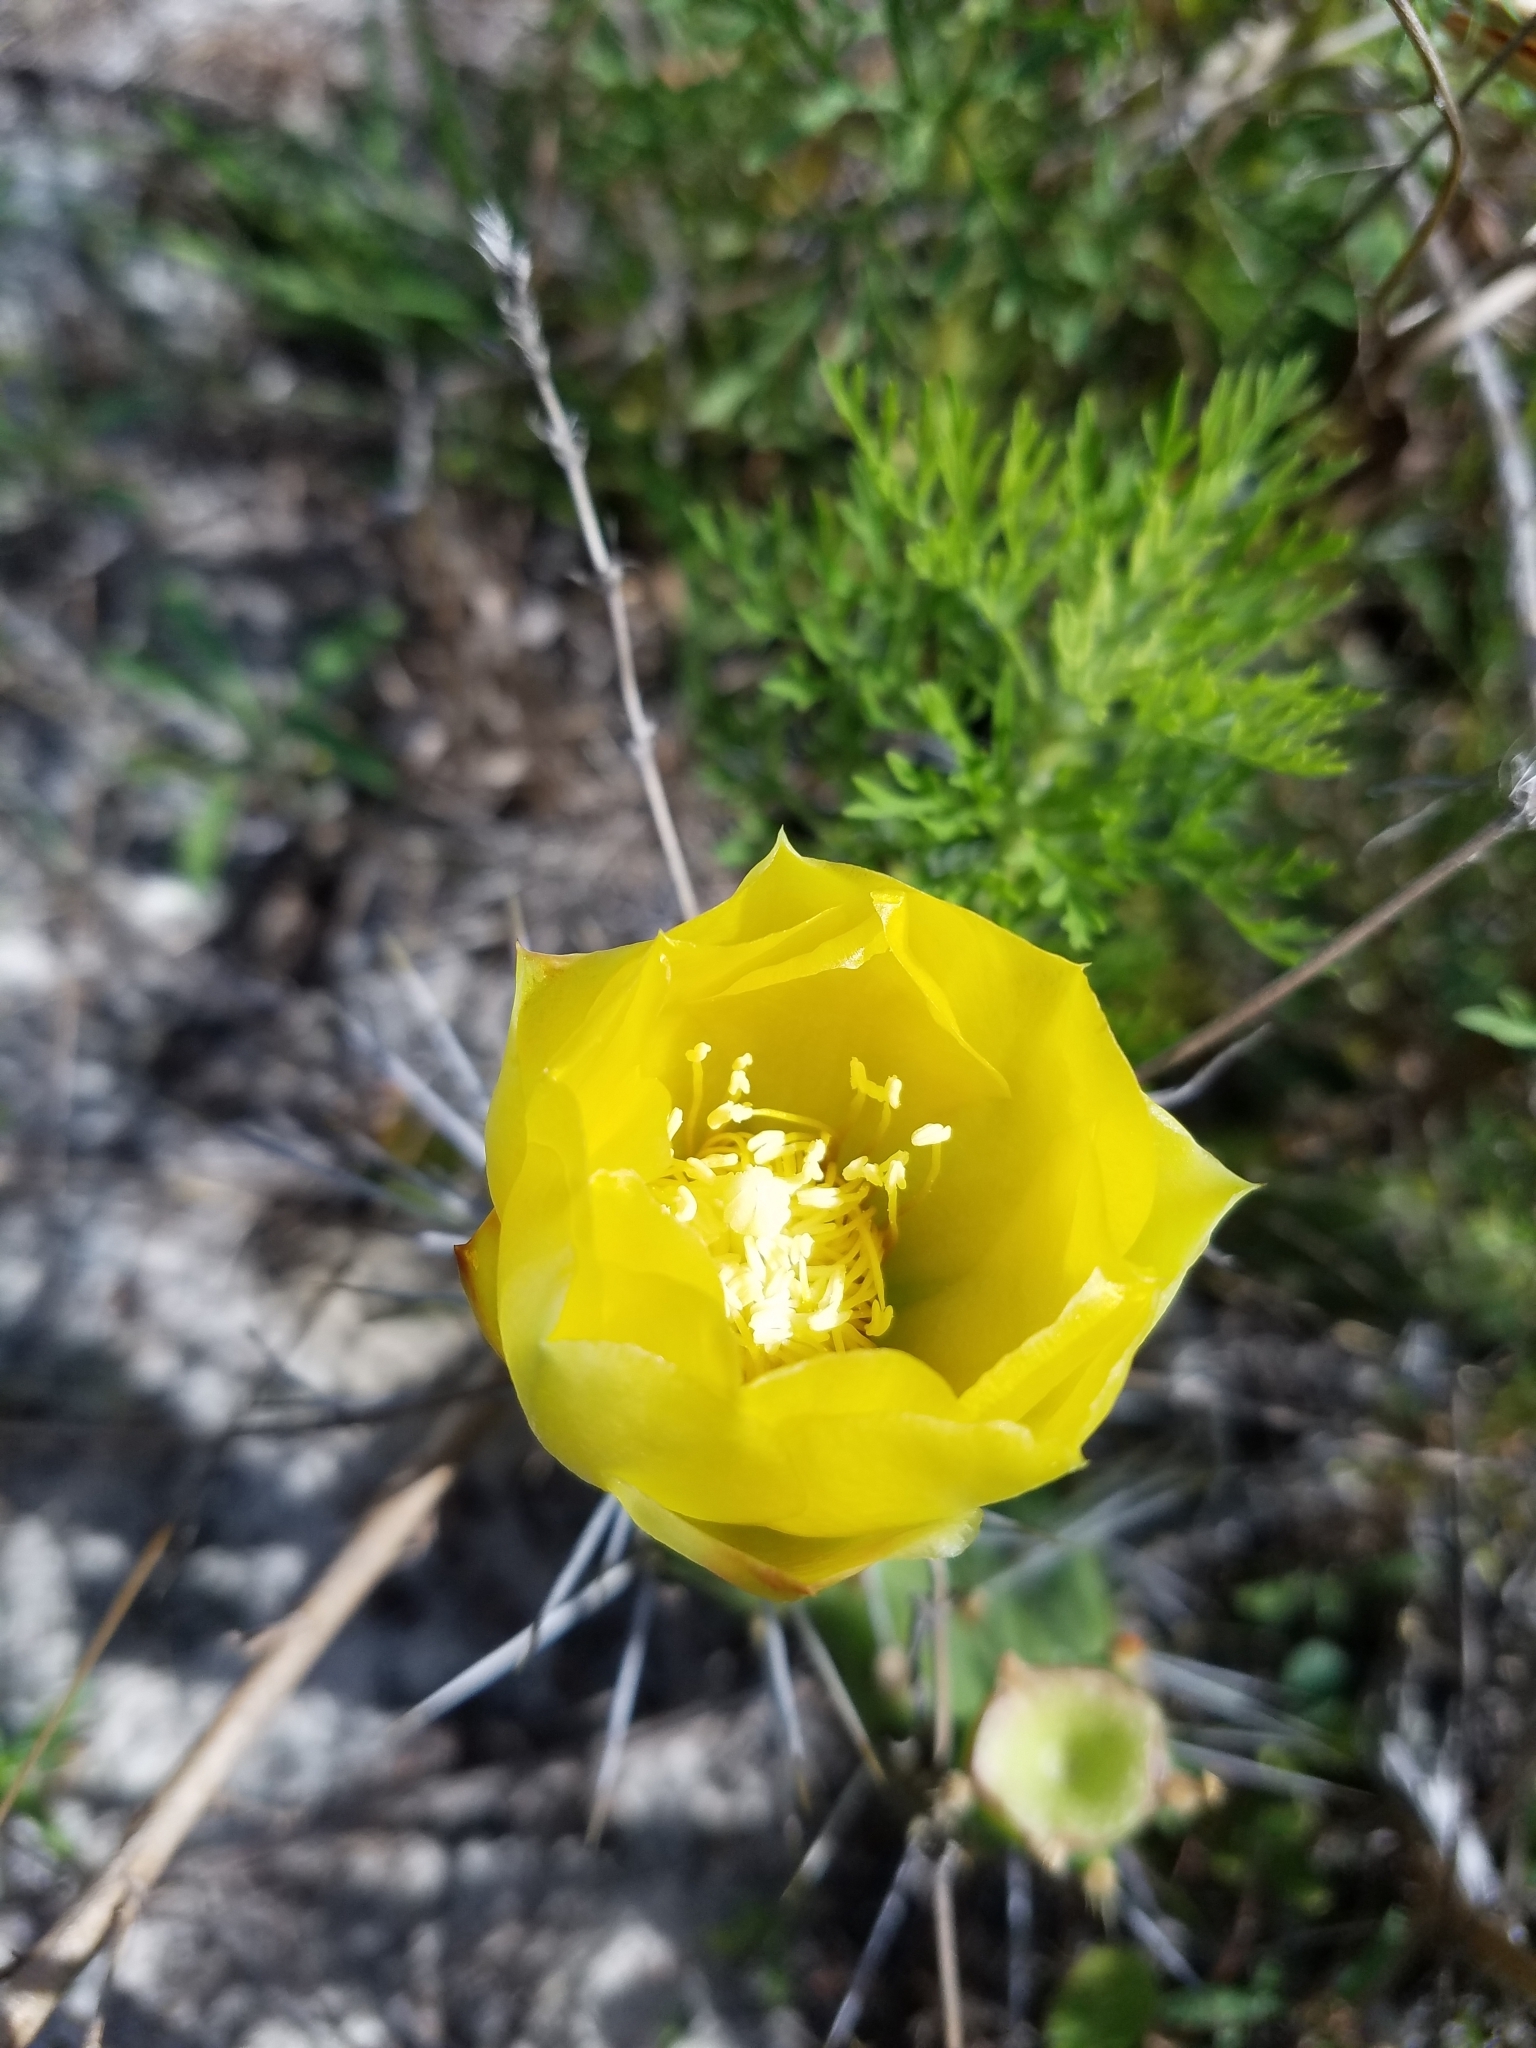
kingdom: Plantae
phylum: Tracheophyta
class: Magnoliopsida
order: Caryophyllales
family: Cactaceae
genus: Opuntia
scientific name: Opuntia austrina
